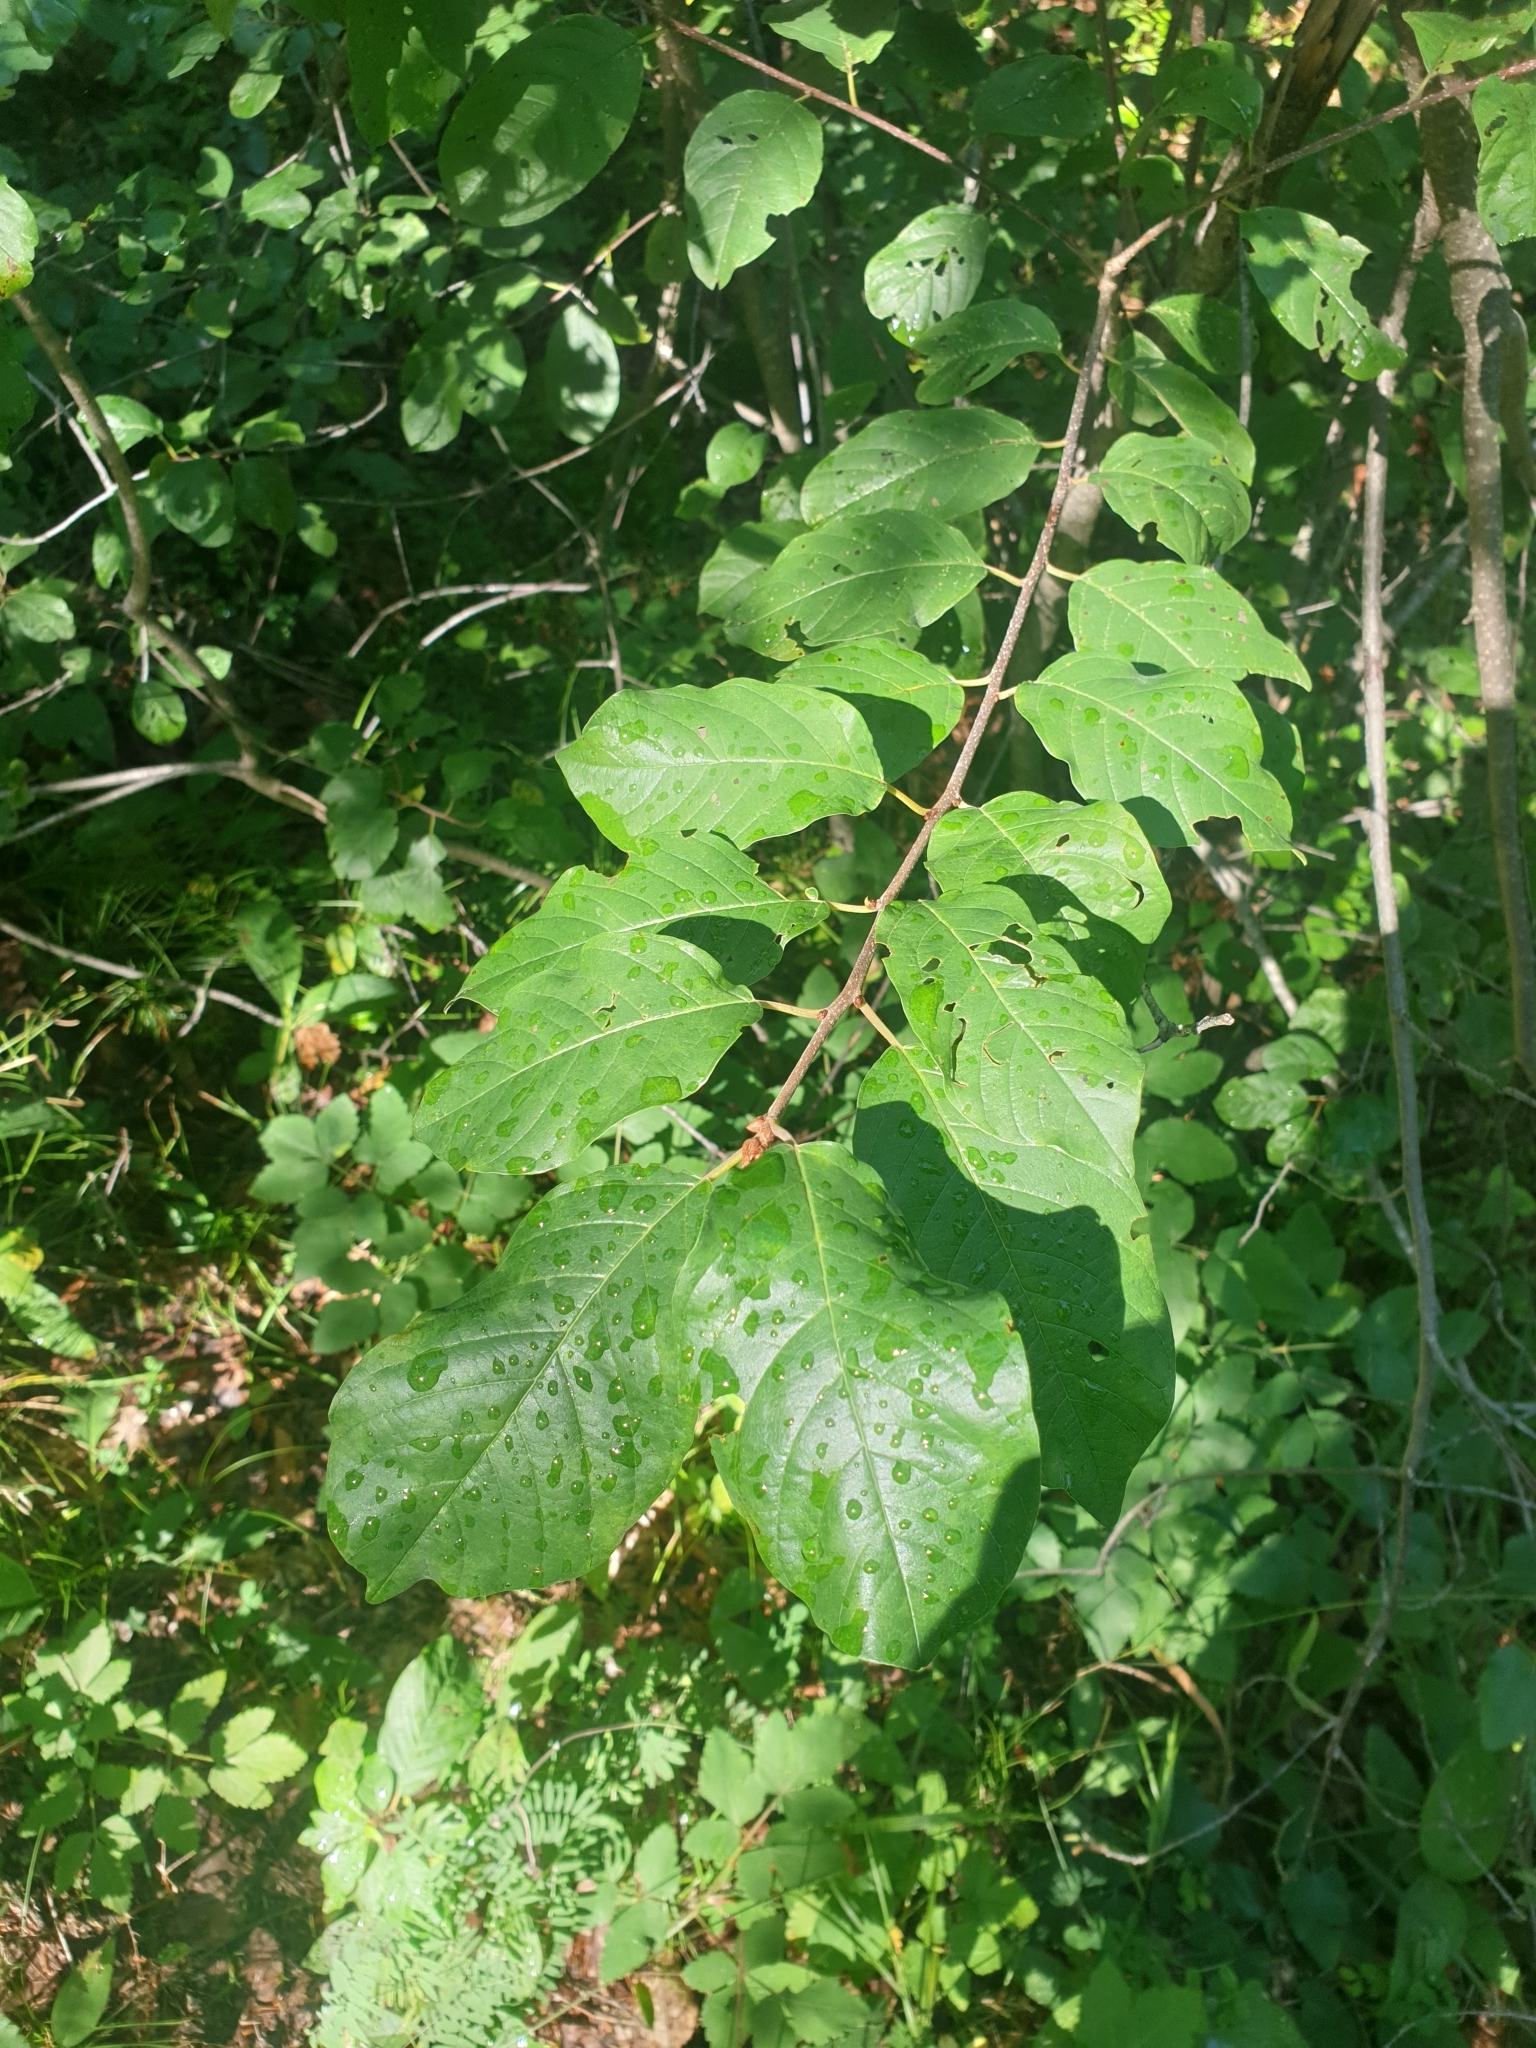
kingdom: Plantae
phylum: Tracheophyta
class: Magnoliopsida
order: Rosales
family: Rhamnaceae
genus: Frangula
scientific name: Frangula alnus
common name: Alder buckthorn
